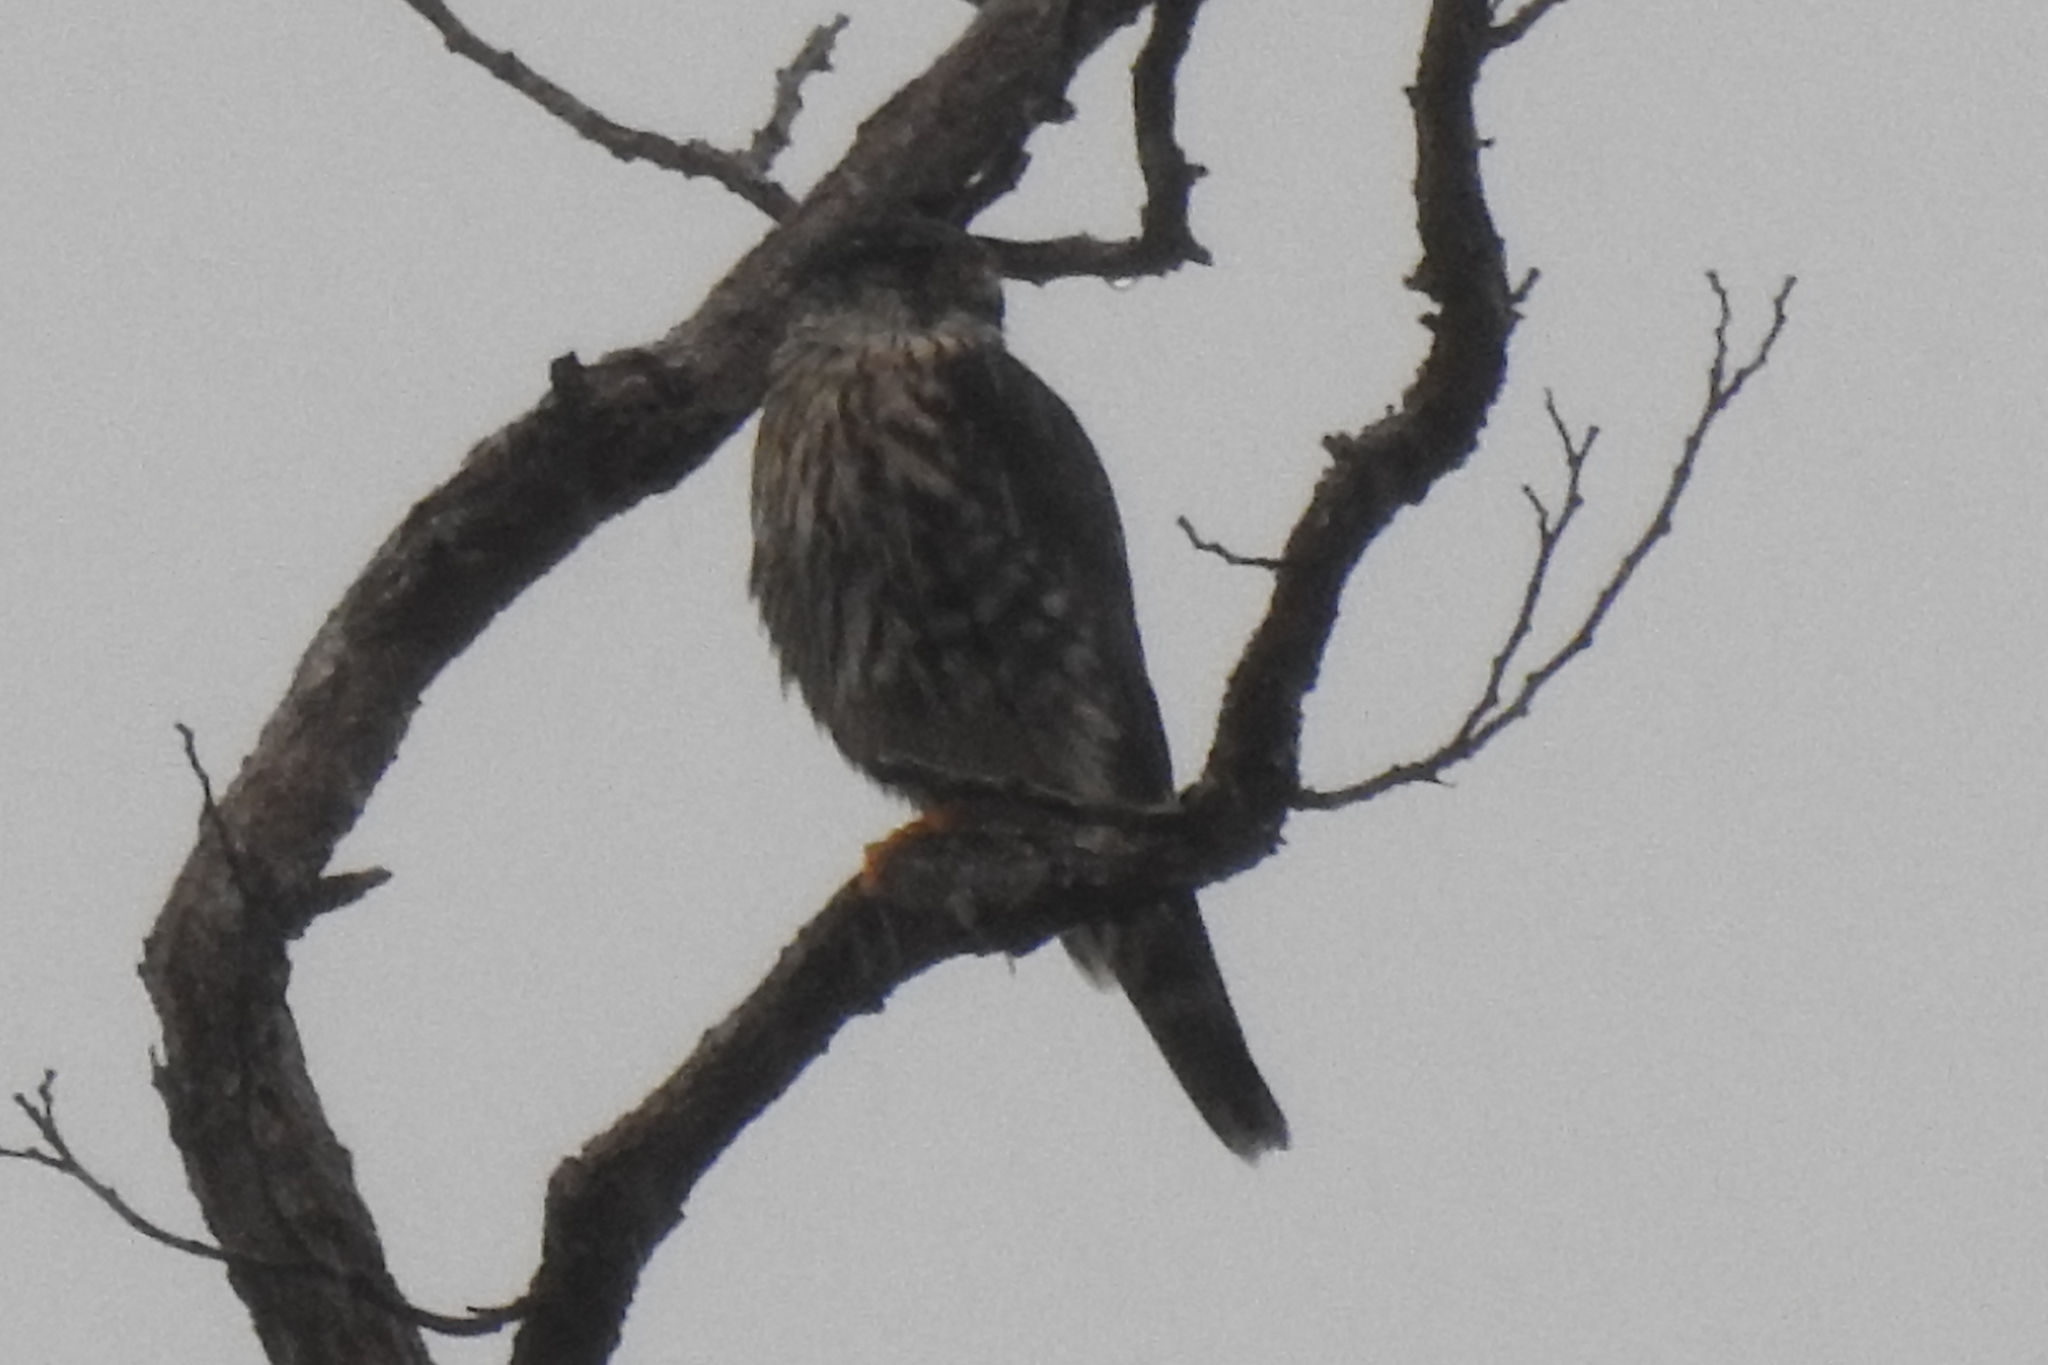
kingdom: Animalia
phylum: Chordata
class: Aves
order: Falconiformes
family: Falconidae
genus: Falco
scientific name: Falco columbarius
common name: Merlin
